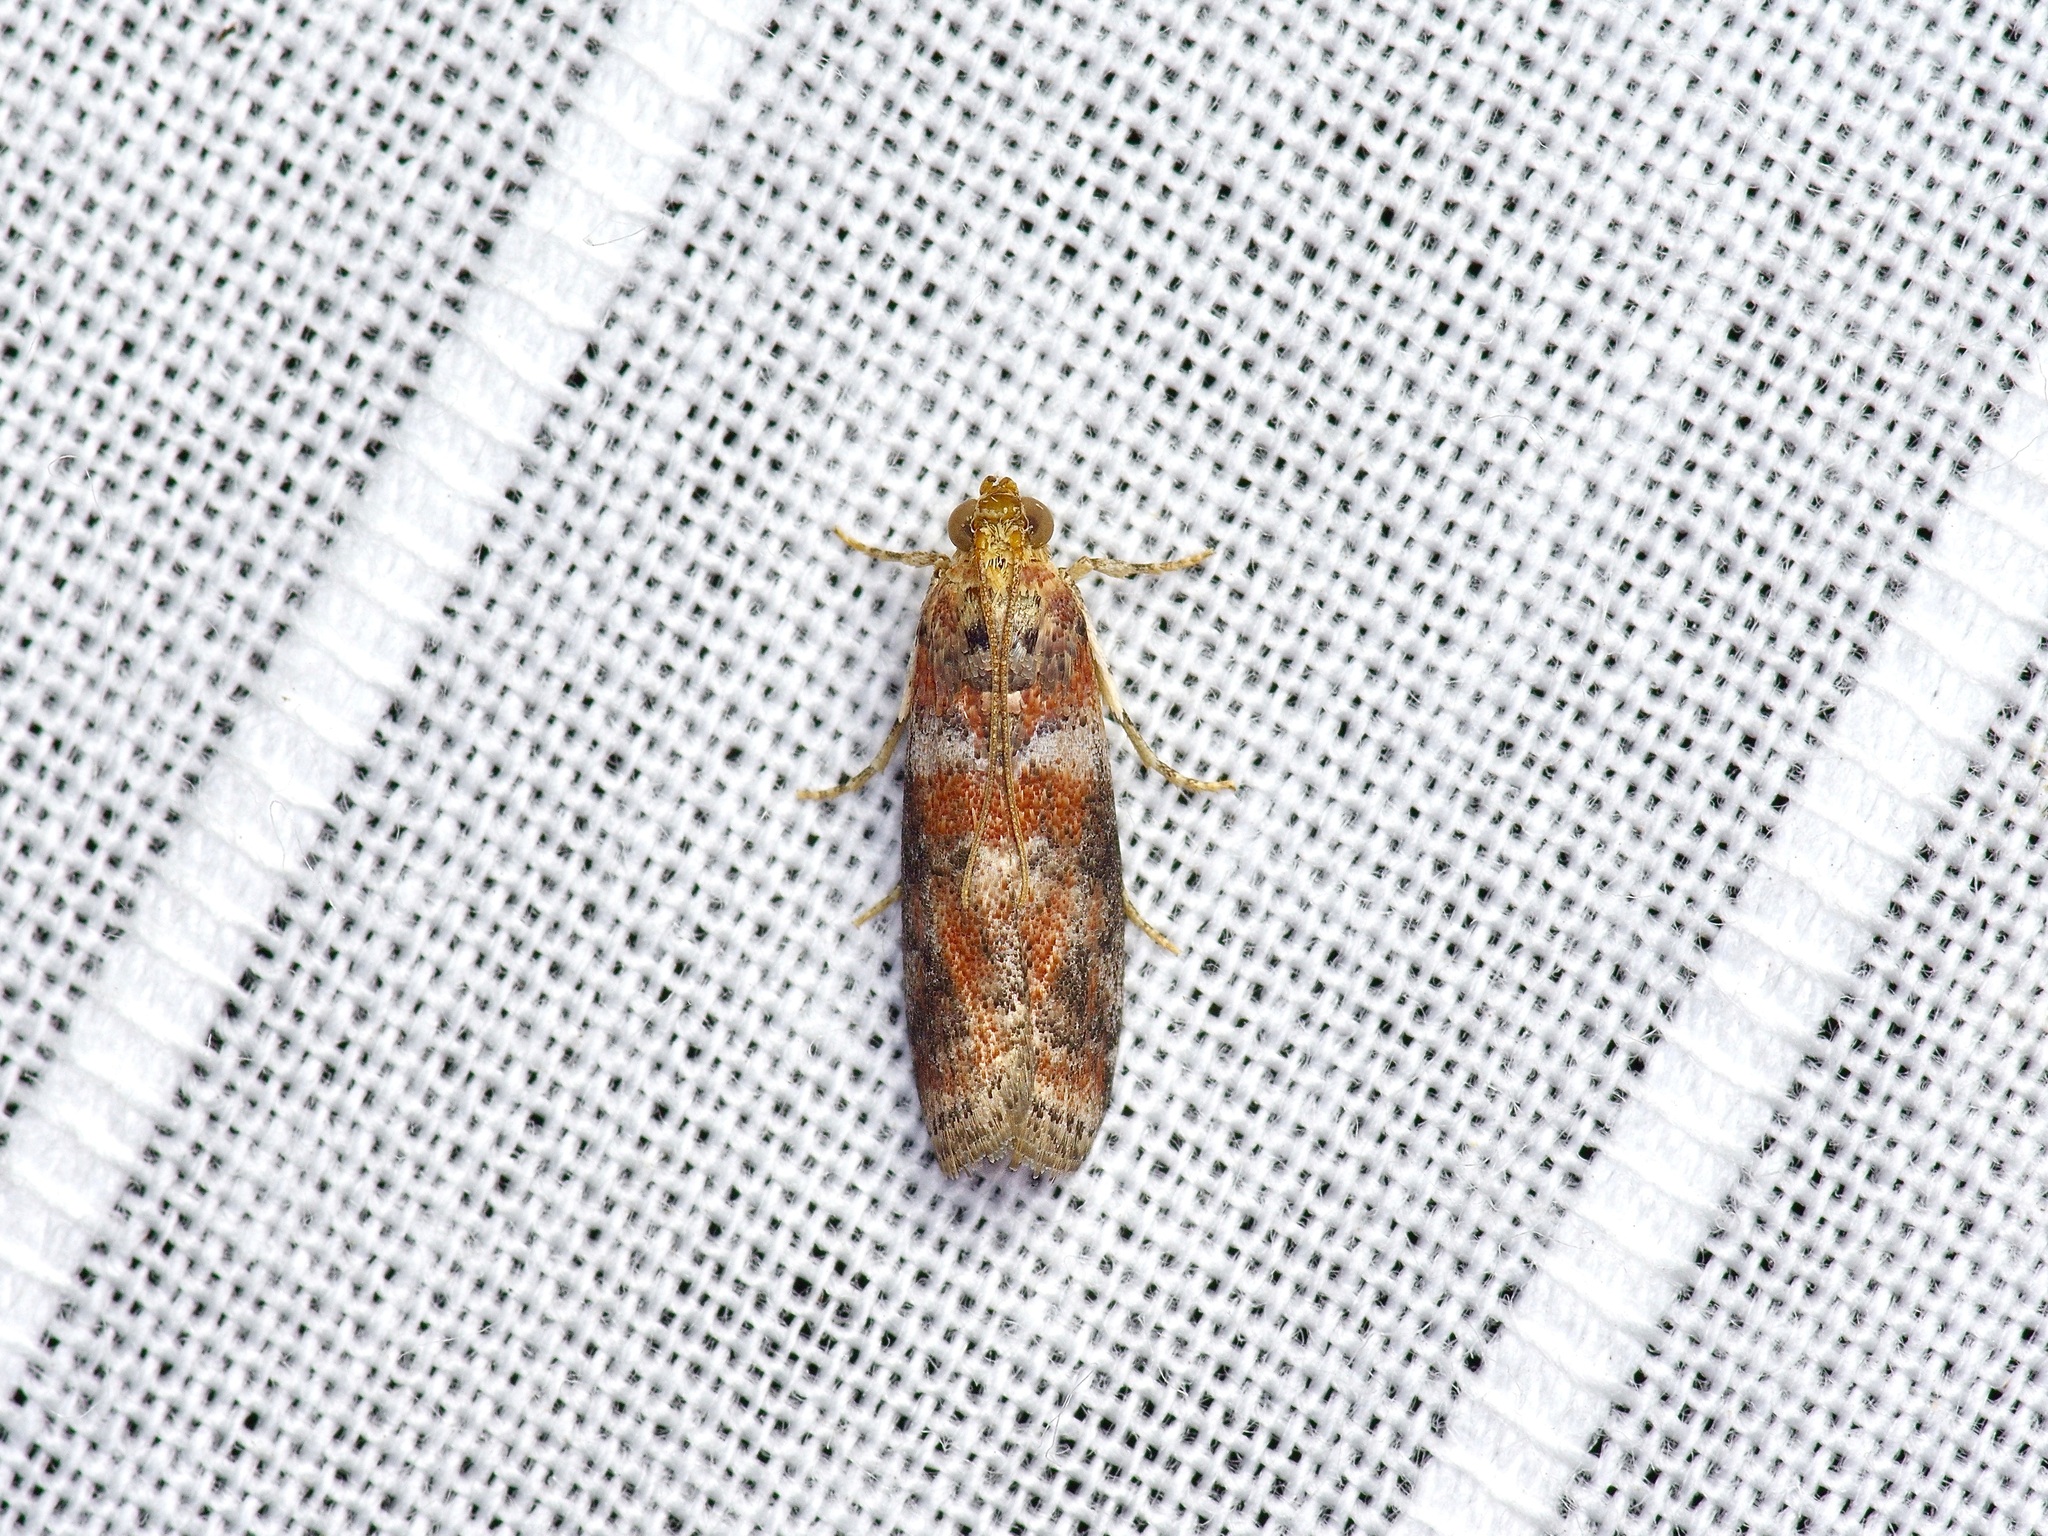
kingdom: Animalia
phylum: Arthropoda
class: Insecta
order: Lepidoptera
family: Pyralidae
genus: Sciota
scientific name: Sciota
